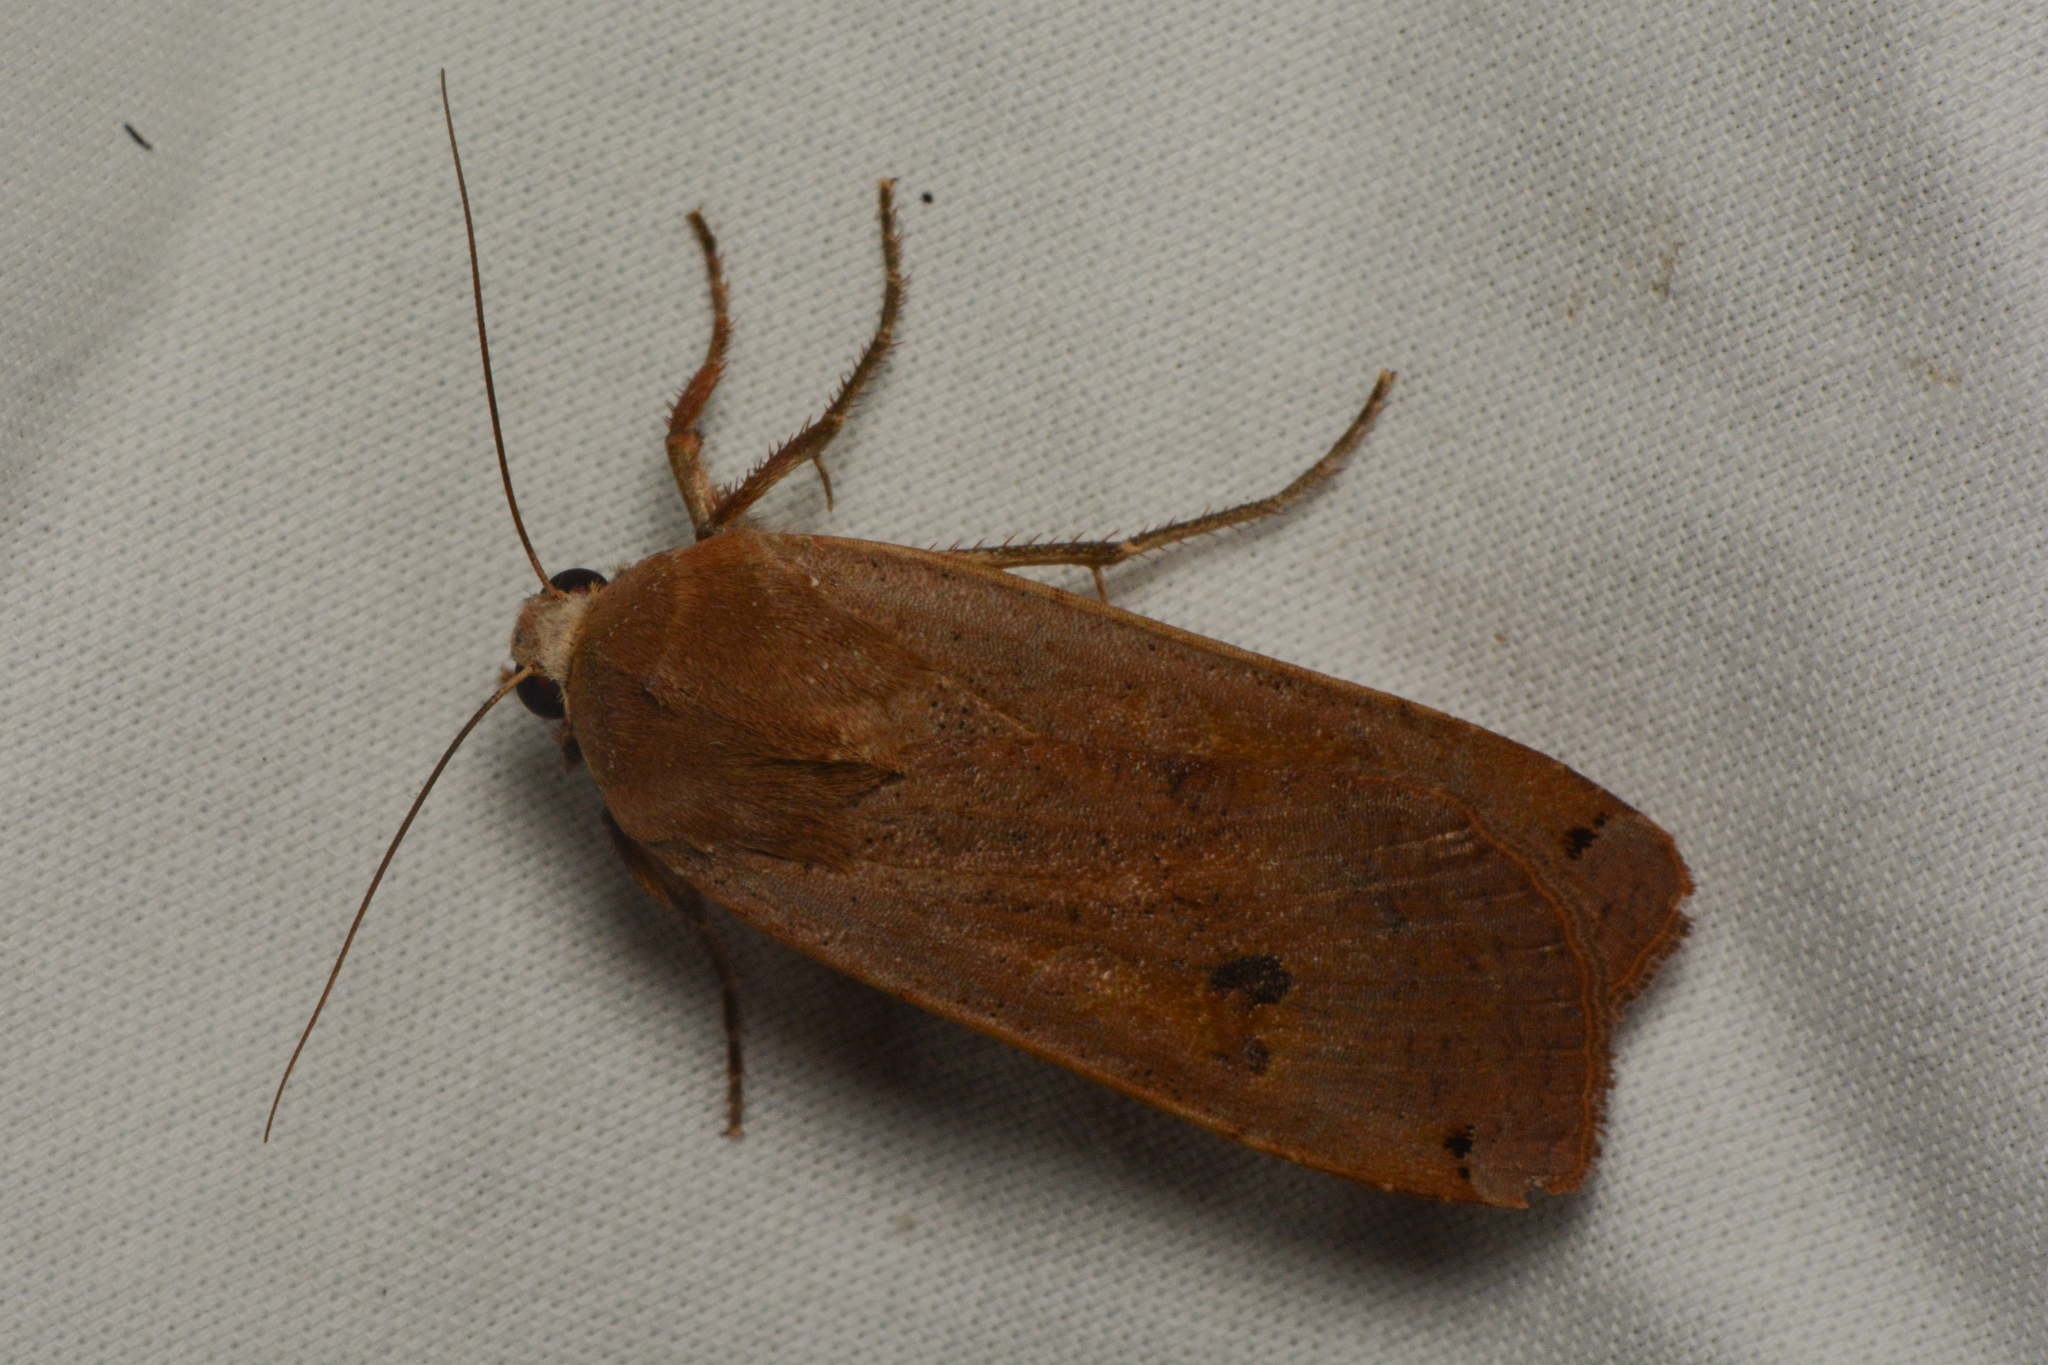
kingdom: Animalia
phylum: Arthropoda
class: Insecta
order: Lepidoptera
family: Noctuidae
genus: Noctua
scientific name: Noctua pronuba
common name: Large yellow underwing
